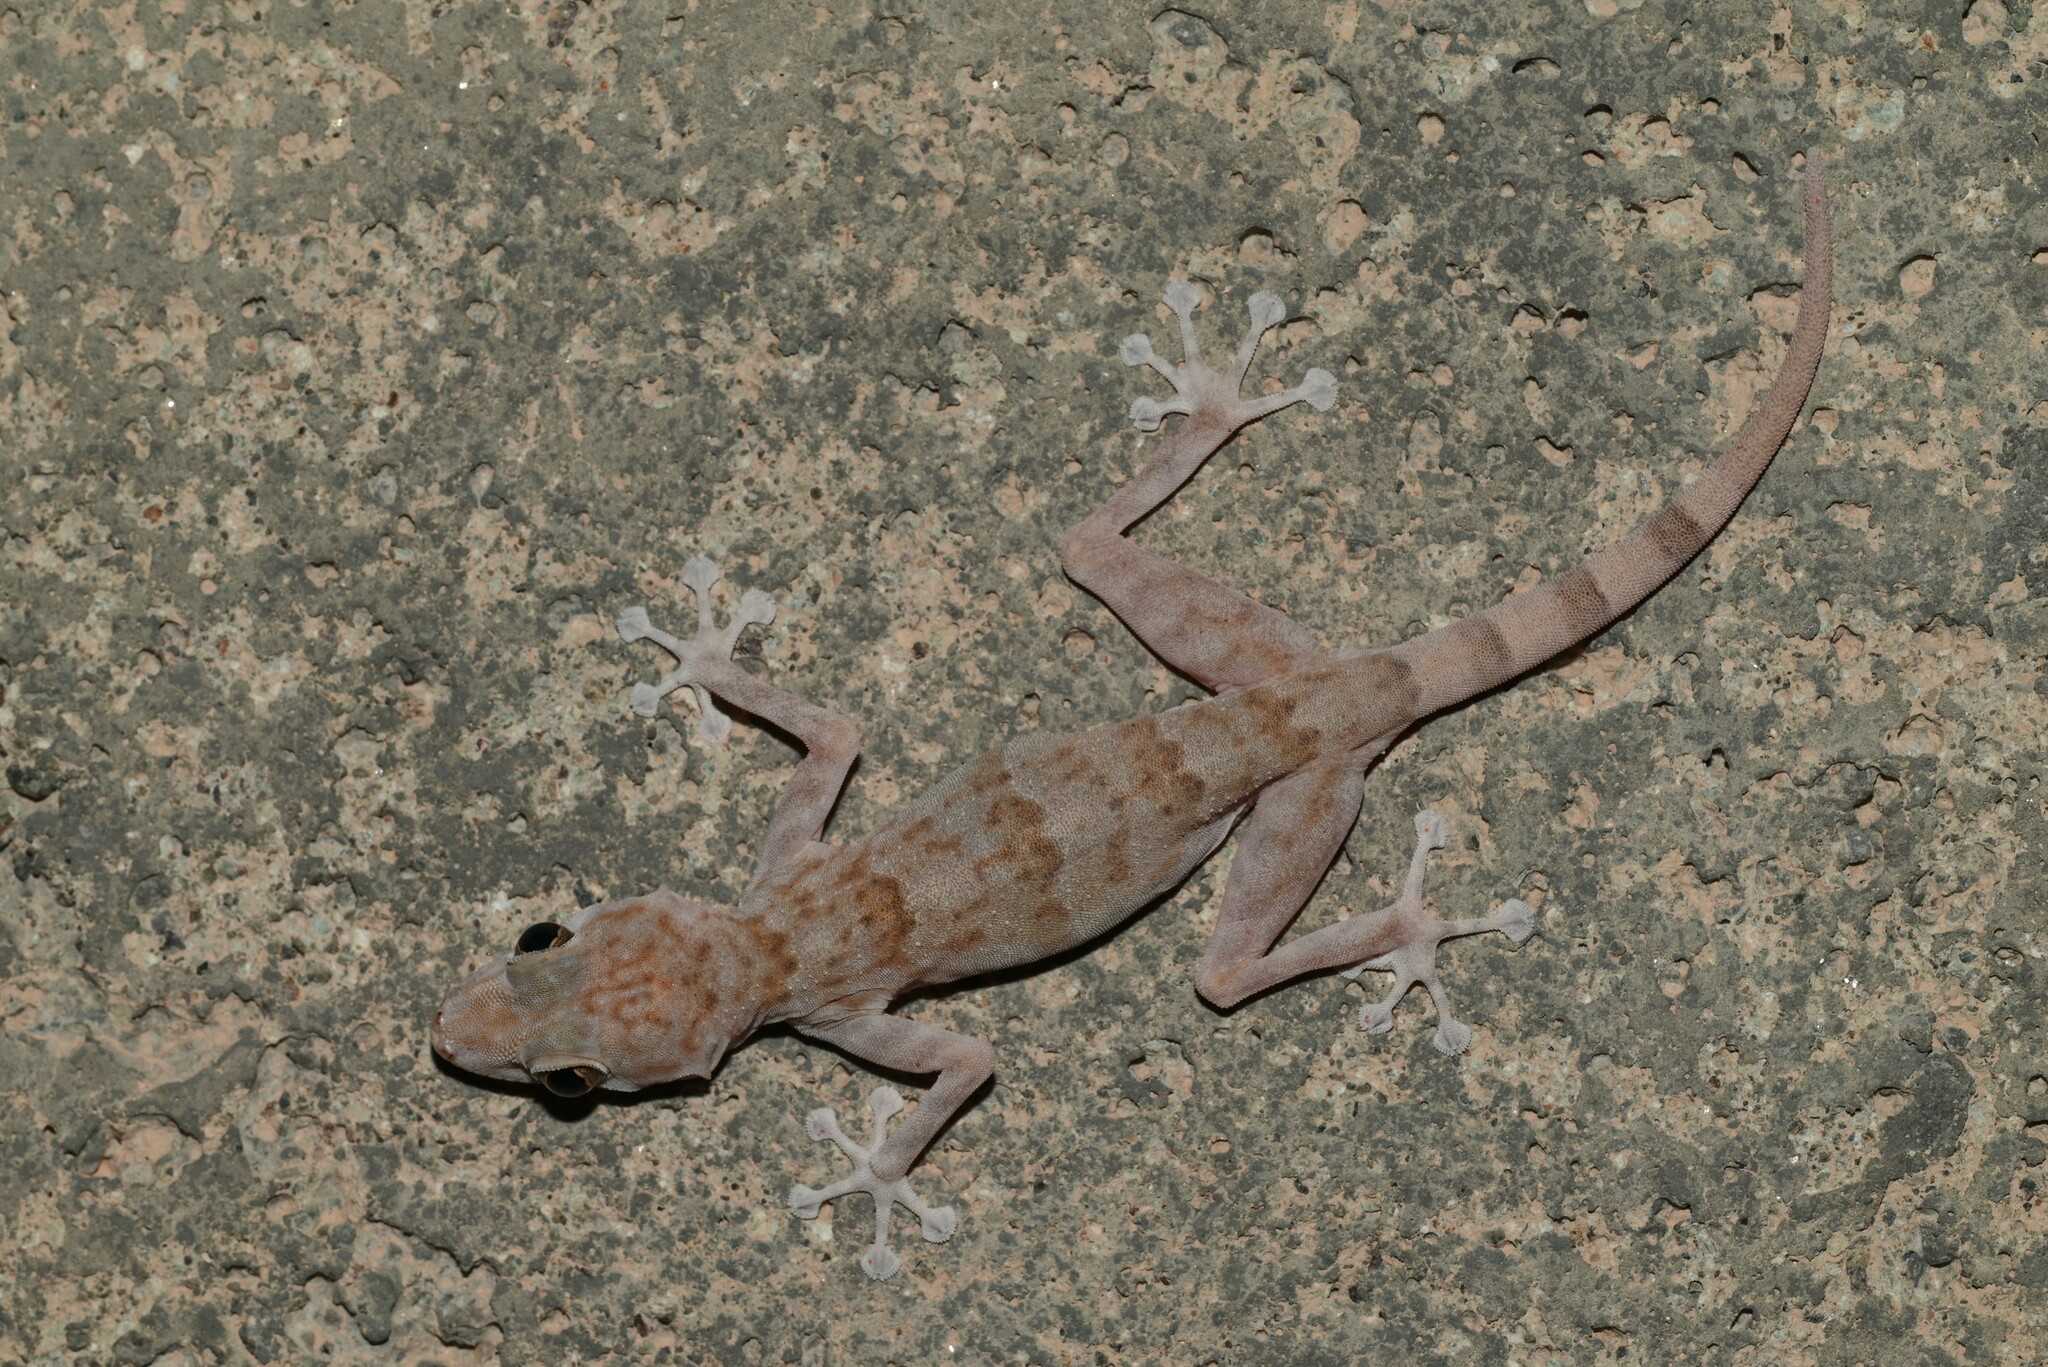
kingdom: Animalia
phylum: Chordata
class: Squamata
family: Phyllodactylidae
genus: Ptyodactylus
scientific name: Ptyodactylus orlovi
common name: Orlov's fan-footed gecko
